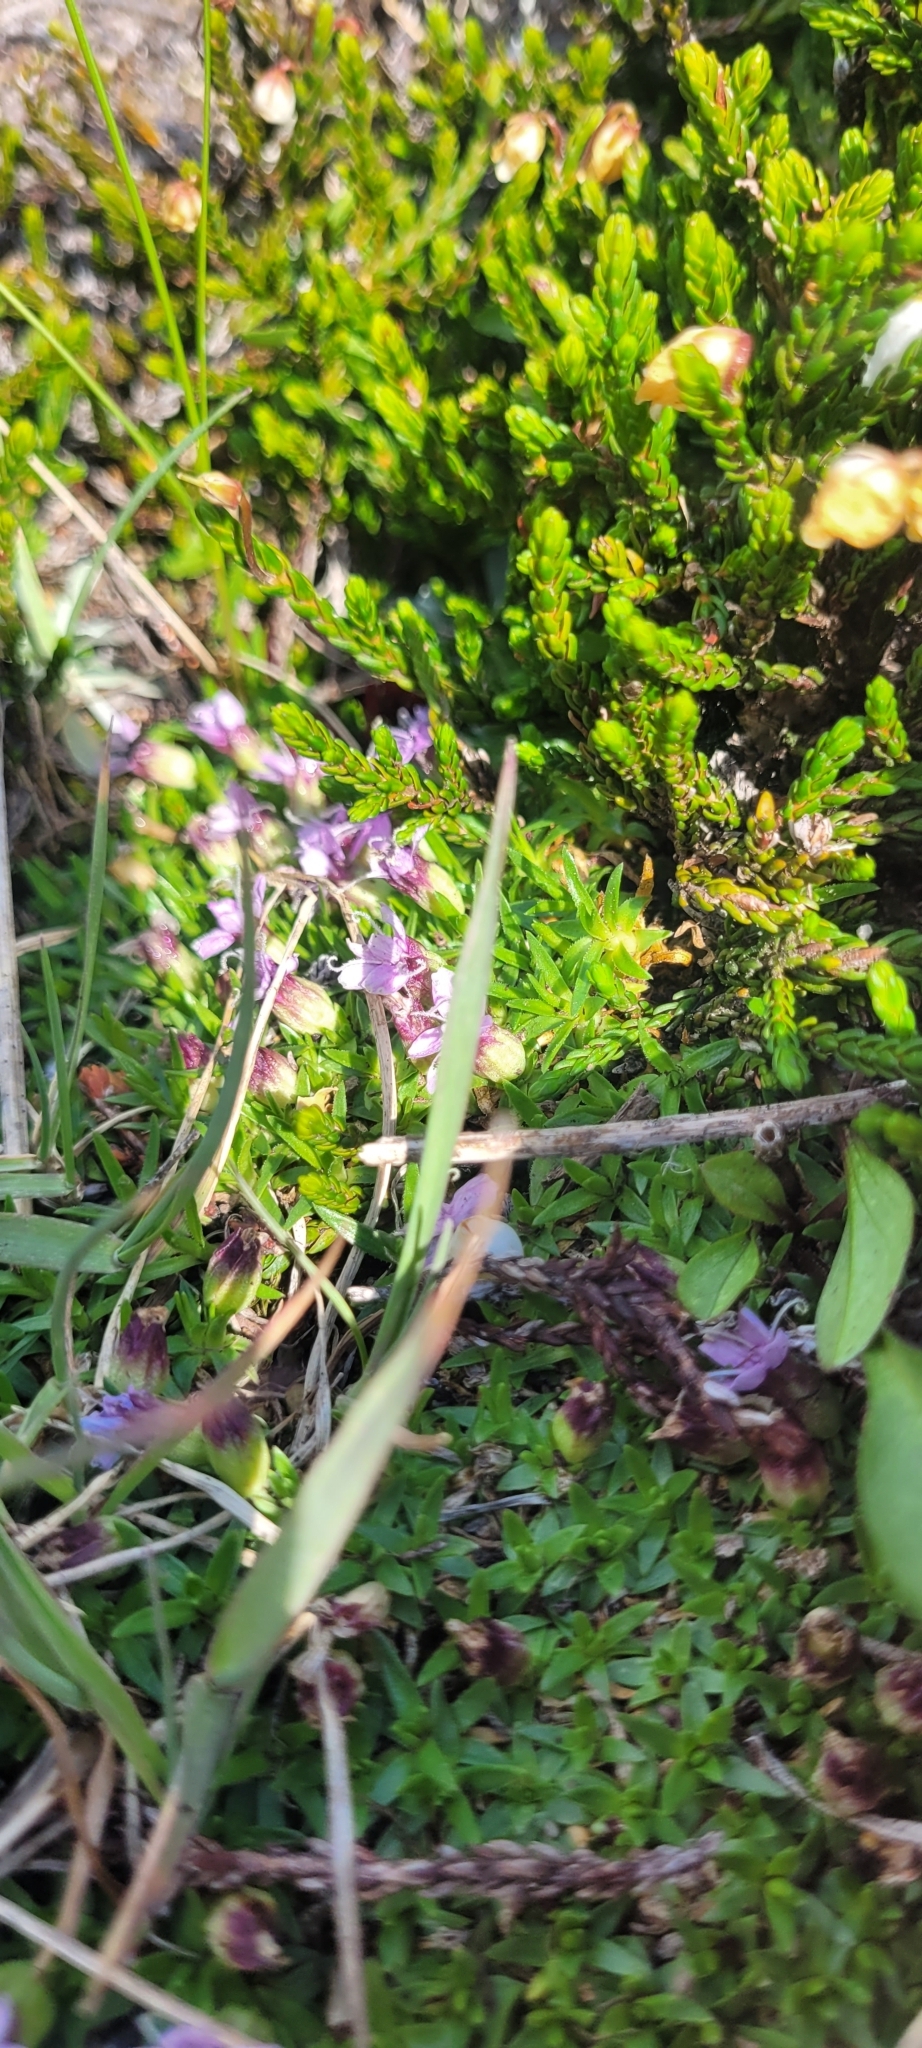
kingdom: Plantae
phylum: Tracheophyta
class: Magnoliopsida
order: Caryophyllales
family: Caryophyllaceae
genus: Silene
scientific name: Silene acaulis
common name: Moss campion
